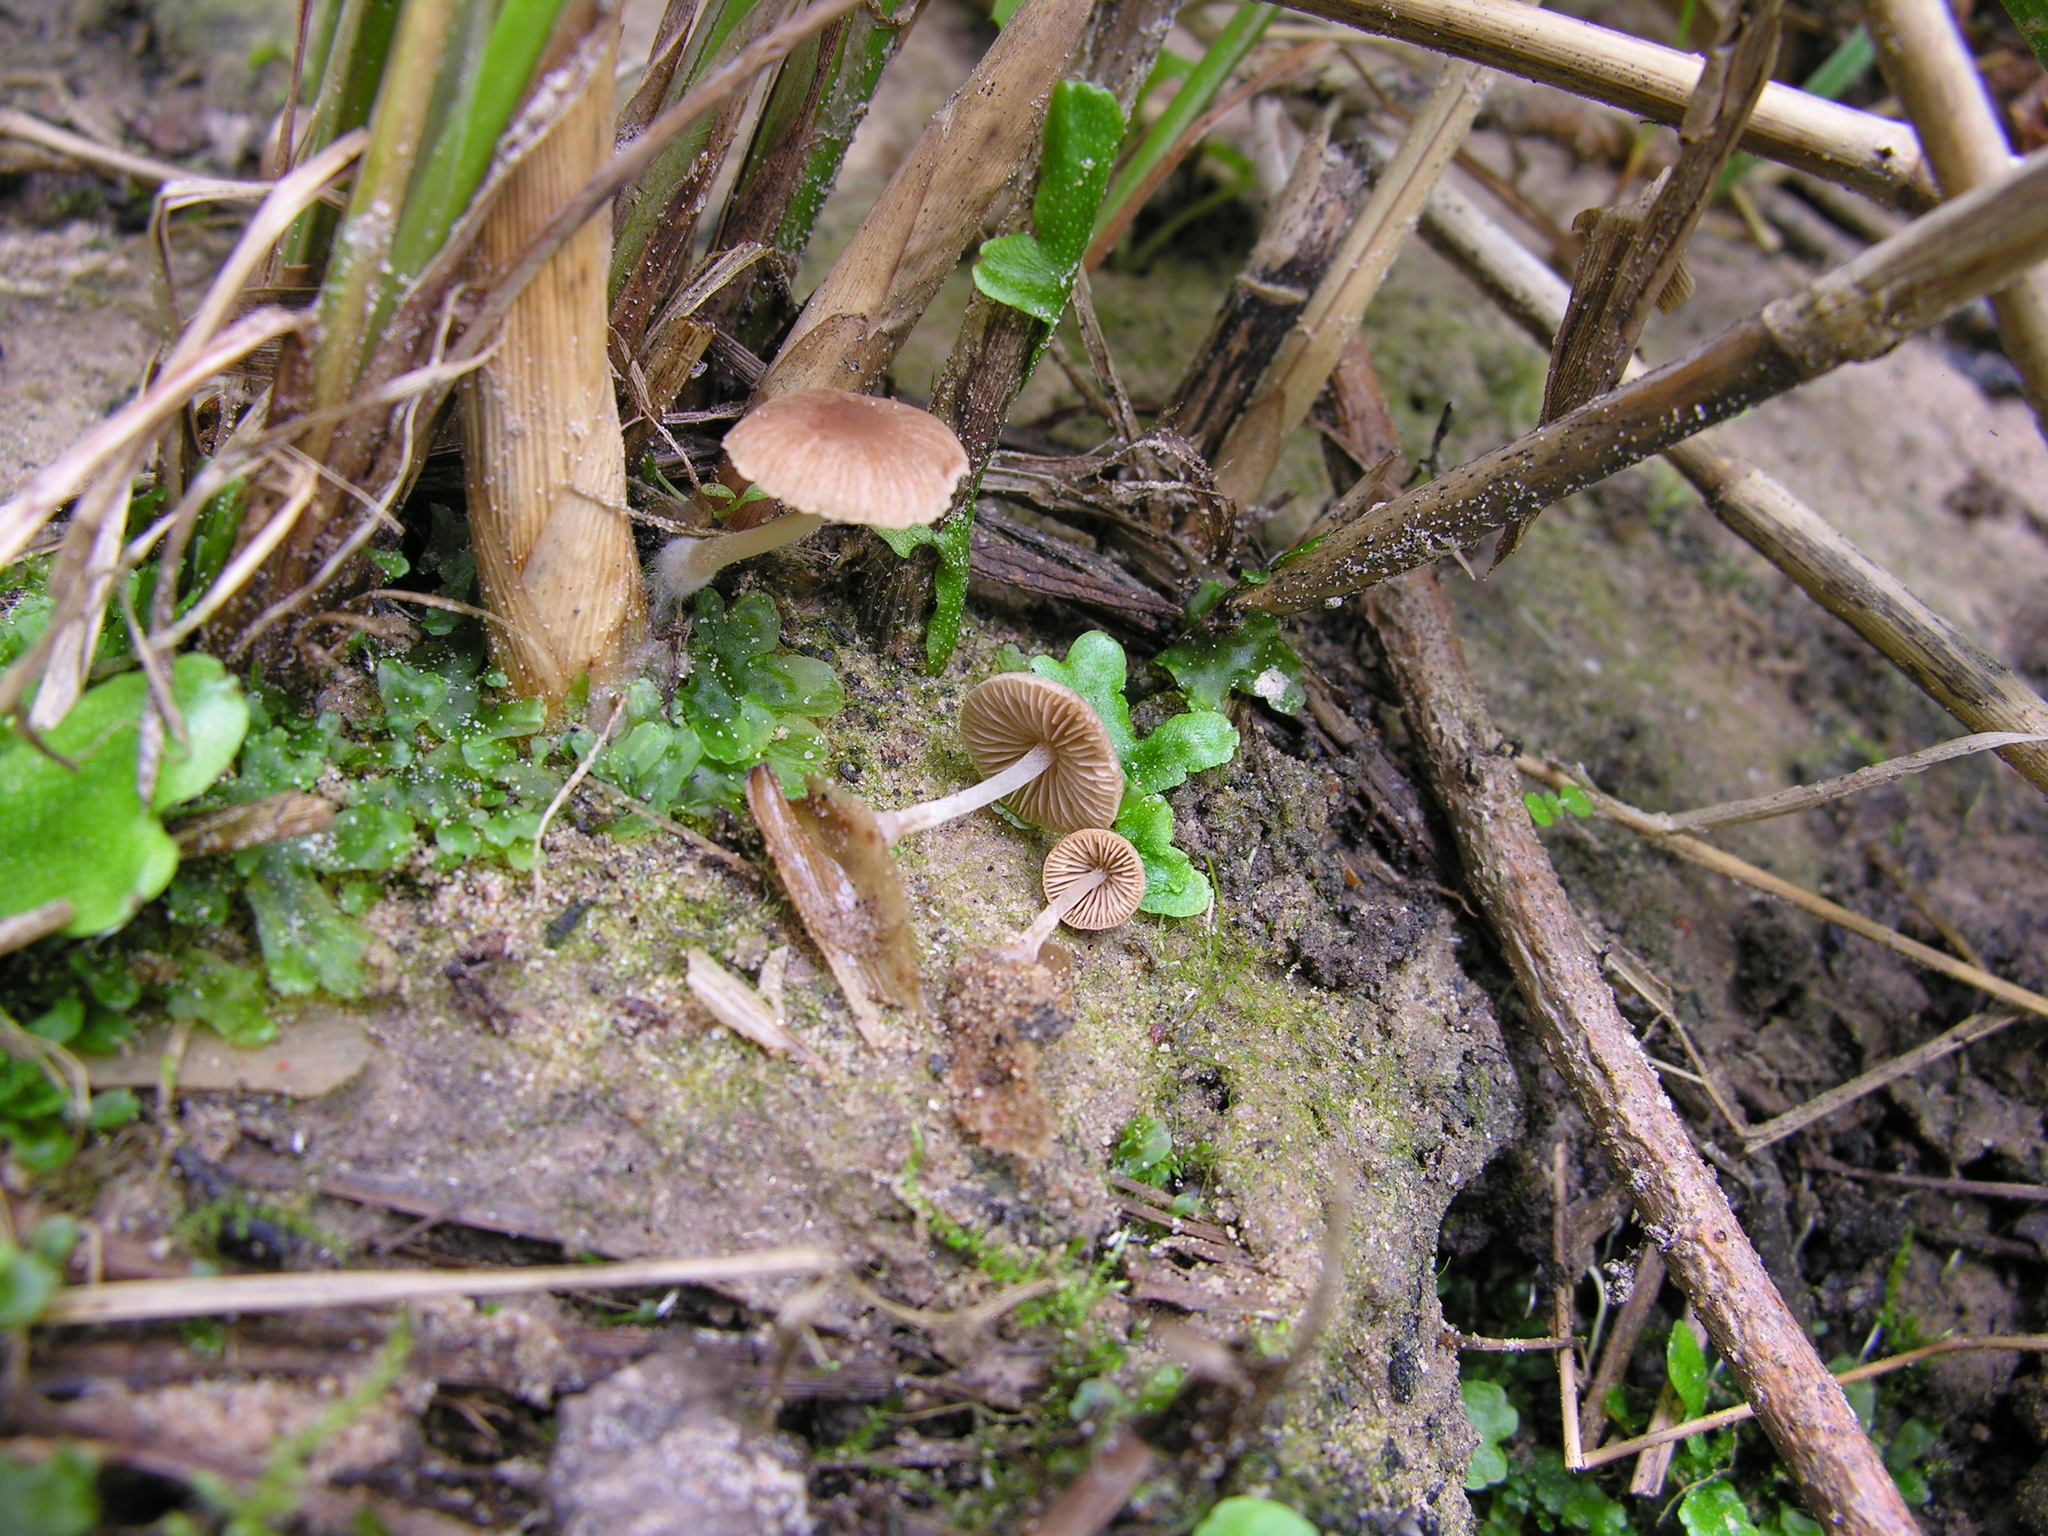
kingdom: Fungi
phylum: Basidiomycota
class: Agaricomycetes
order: Agaricales
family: Psathyrellaceae
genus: Candolleomyces
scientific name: Candolleomyces typhae
